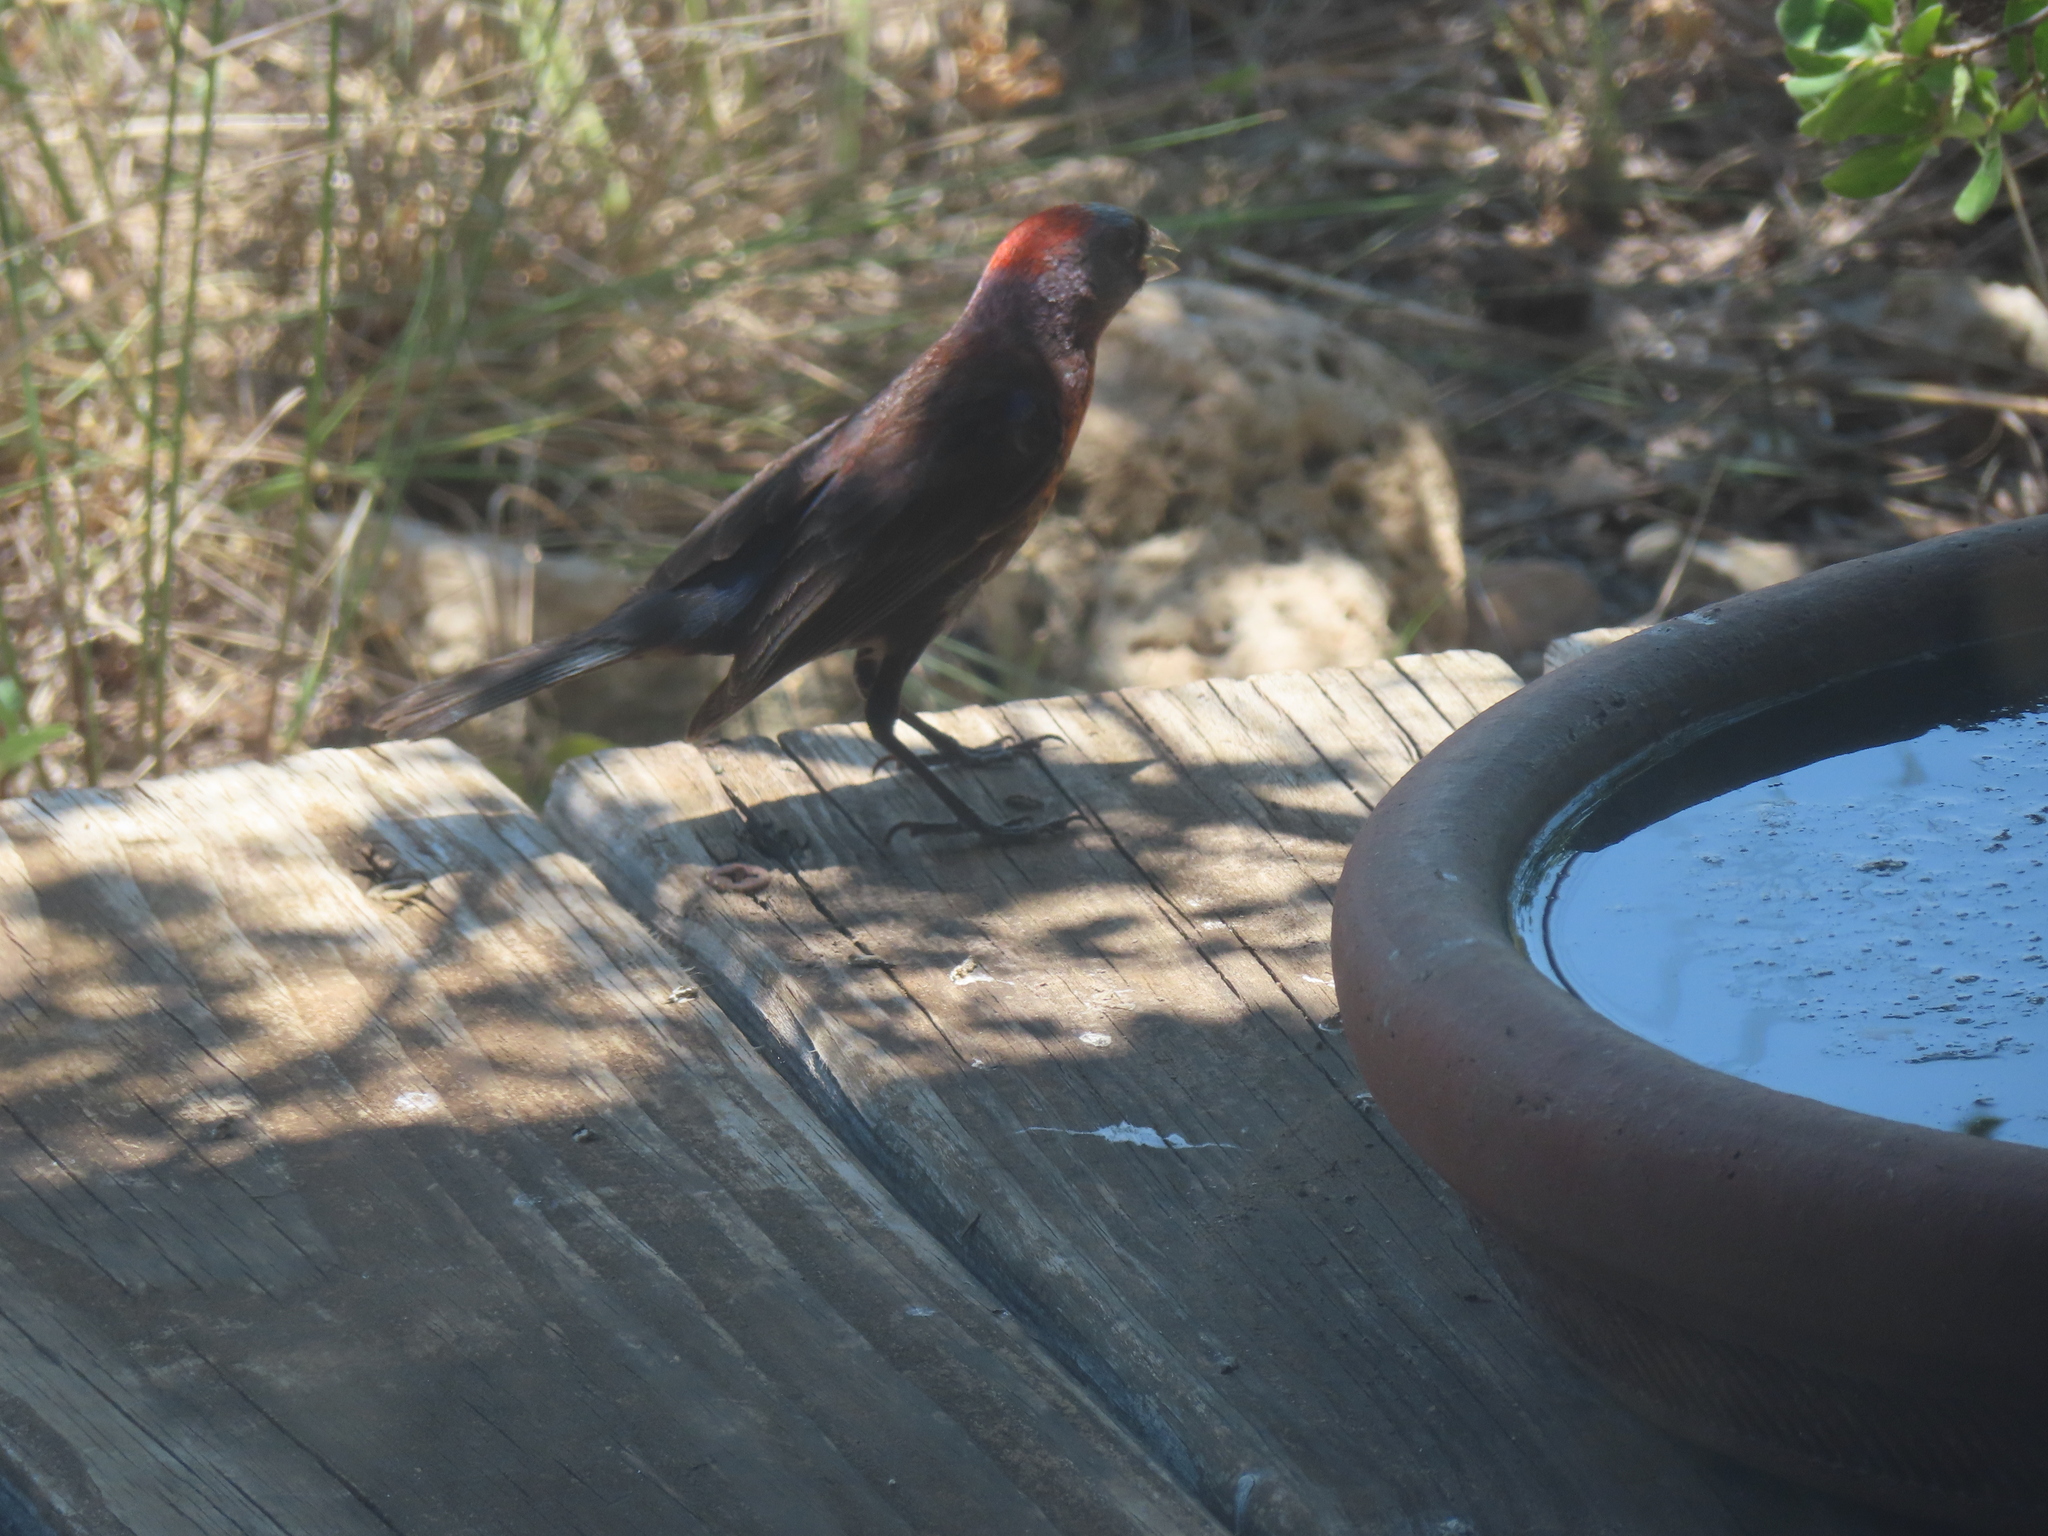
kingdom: Animalia
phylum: Chordata
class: Aves
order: Passeriformes
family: Cardinalidae
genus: Passerina
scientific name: Passerina versicolor
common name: Varied bunting
